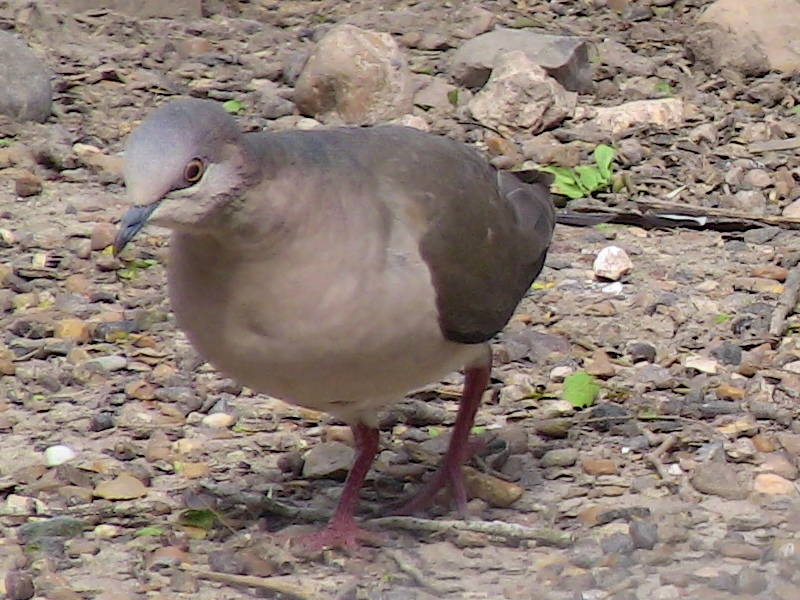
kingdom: Animalia
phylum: Chordata
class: Aves
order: Columbiformes
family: Columbidae
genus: Leptotila
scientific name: Leptotila verreauxi
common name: White-tipped dove
